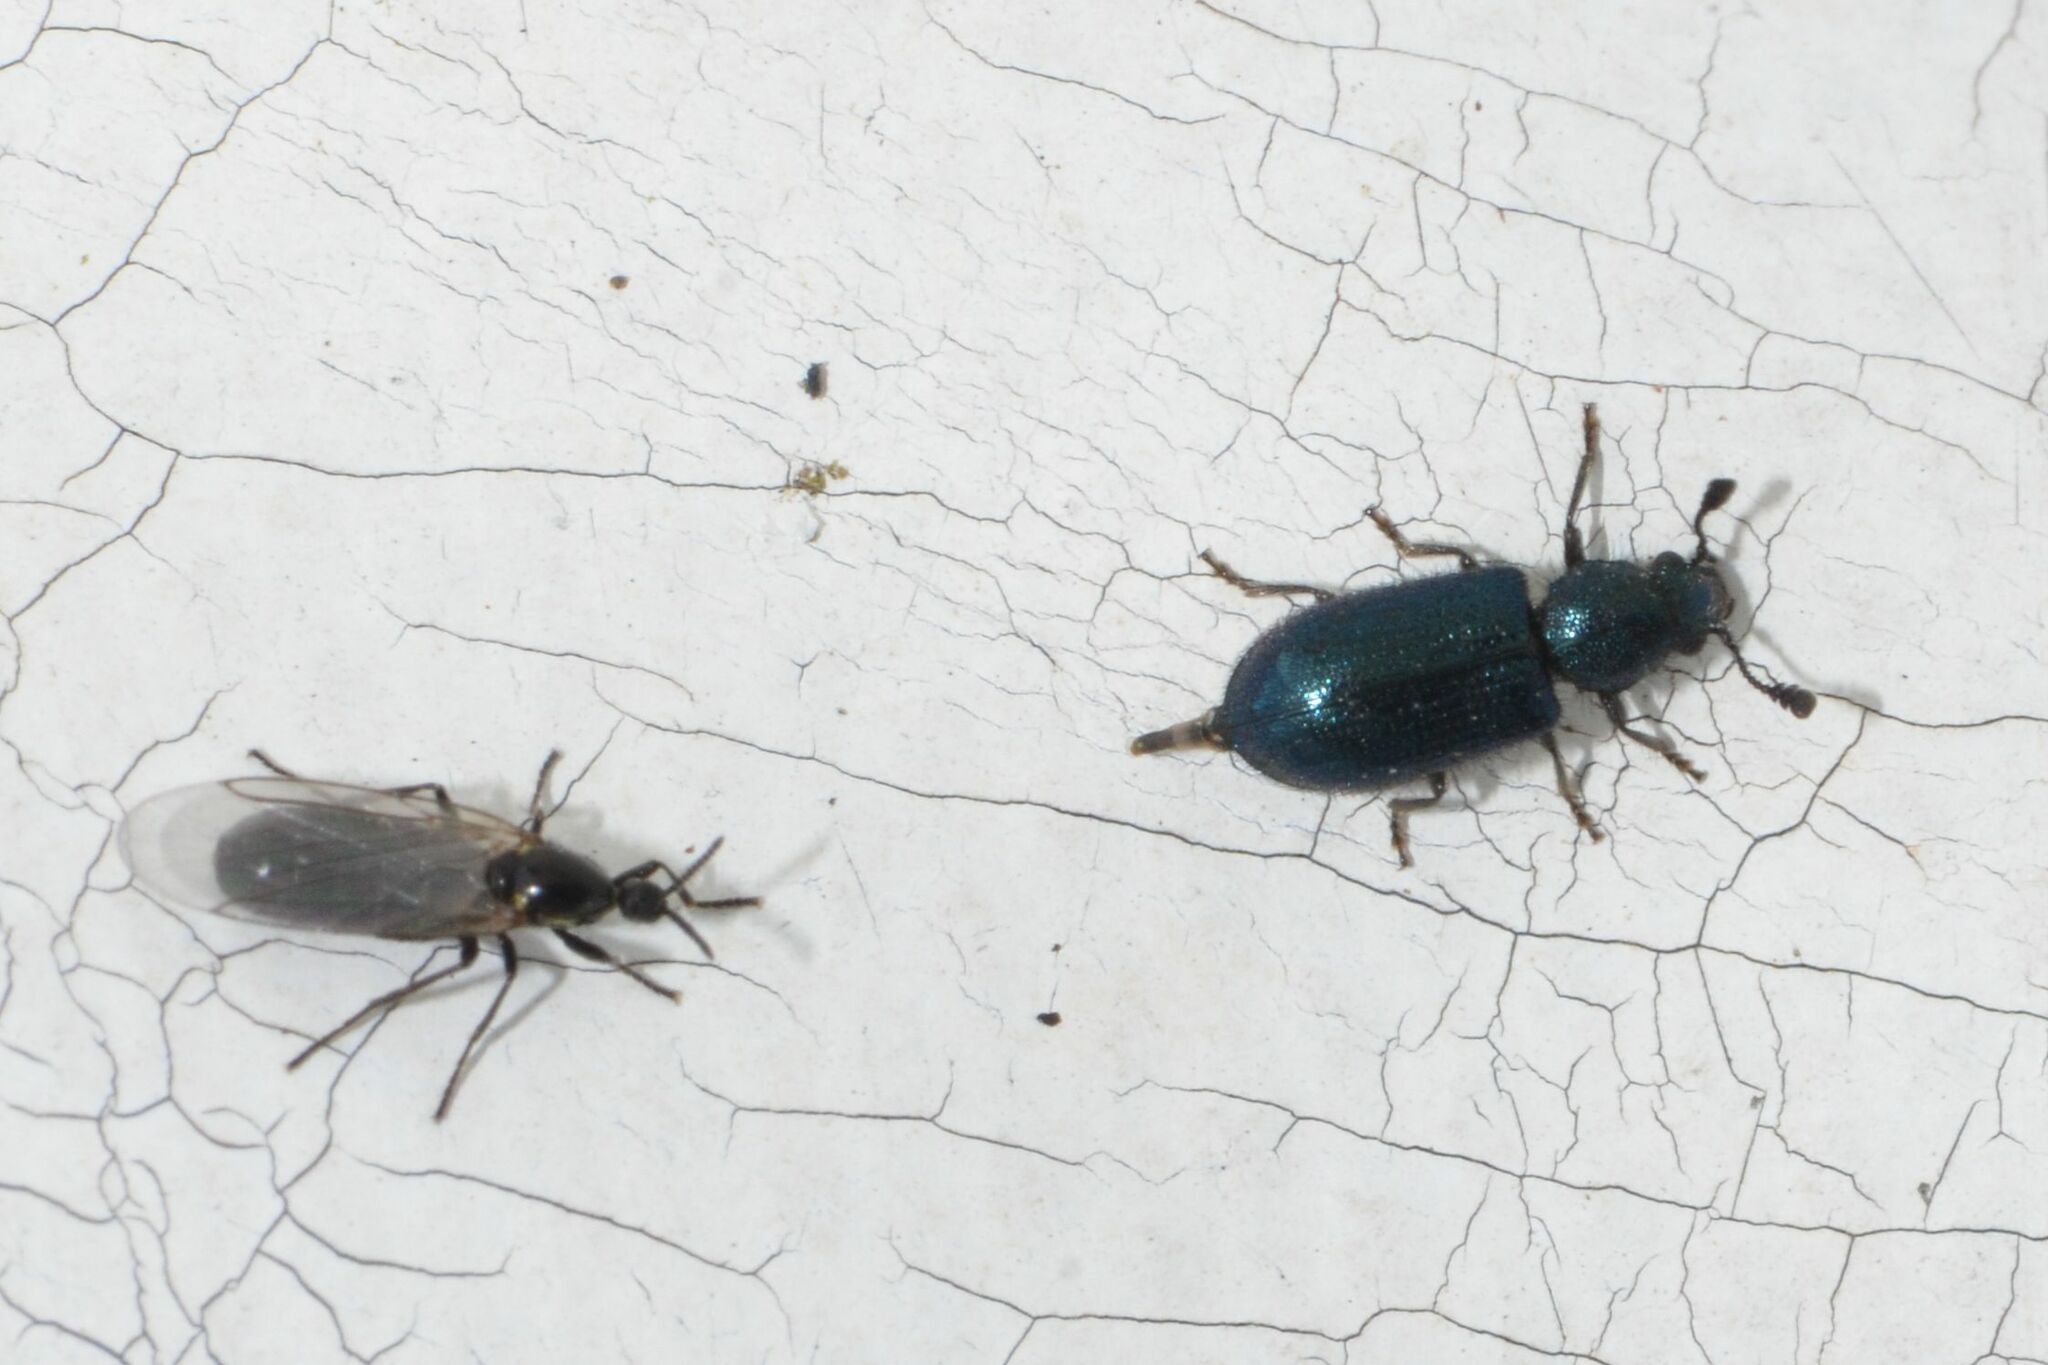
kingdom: Animalia
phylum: Arthropoda
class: Insecta
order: Coleoptera
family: Cleridae
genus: Necrobia
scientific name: Necrobia violacea
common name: Violet checkered beetle
